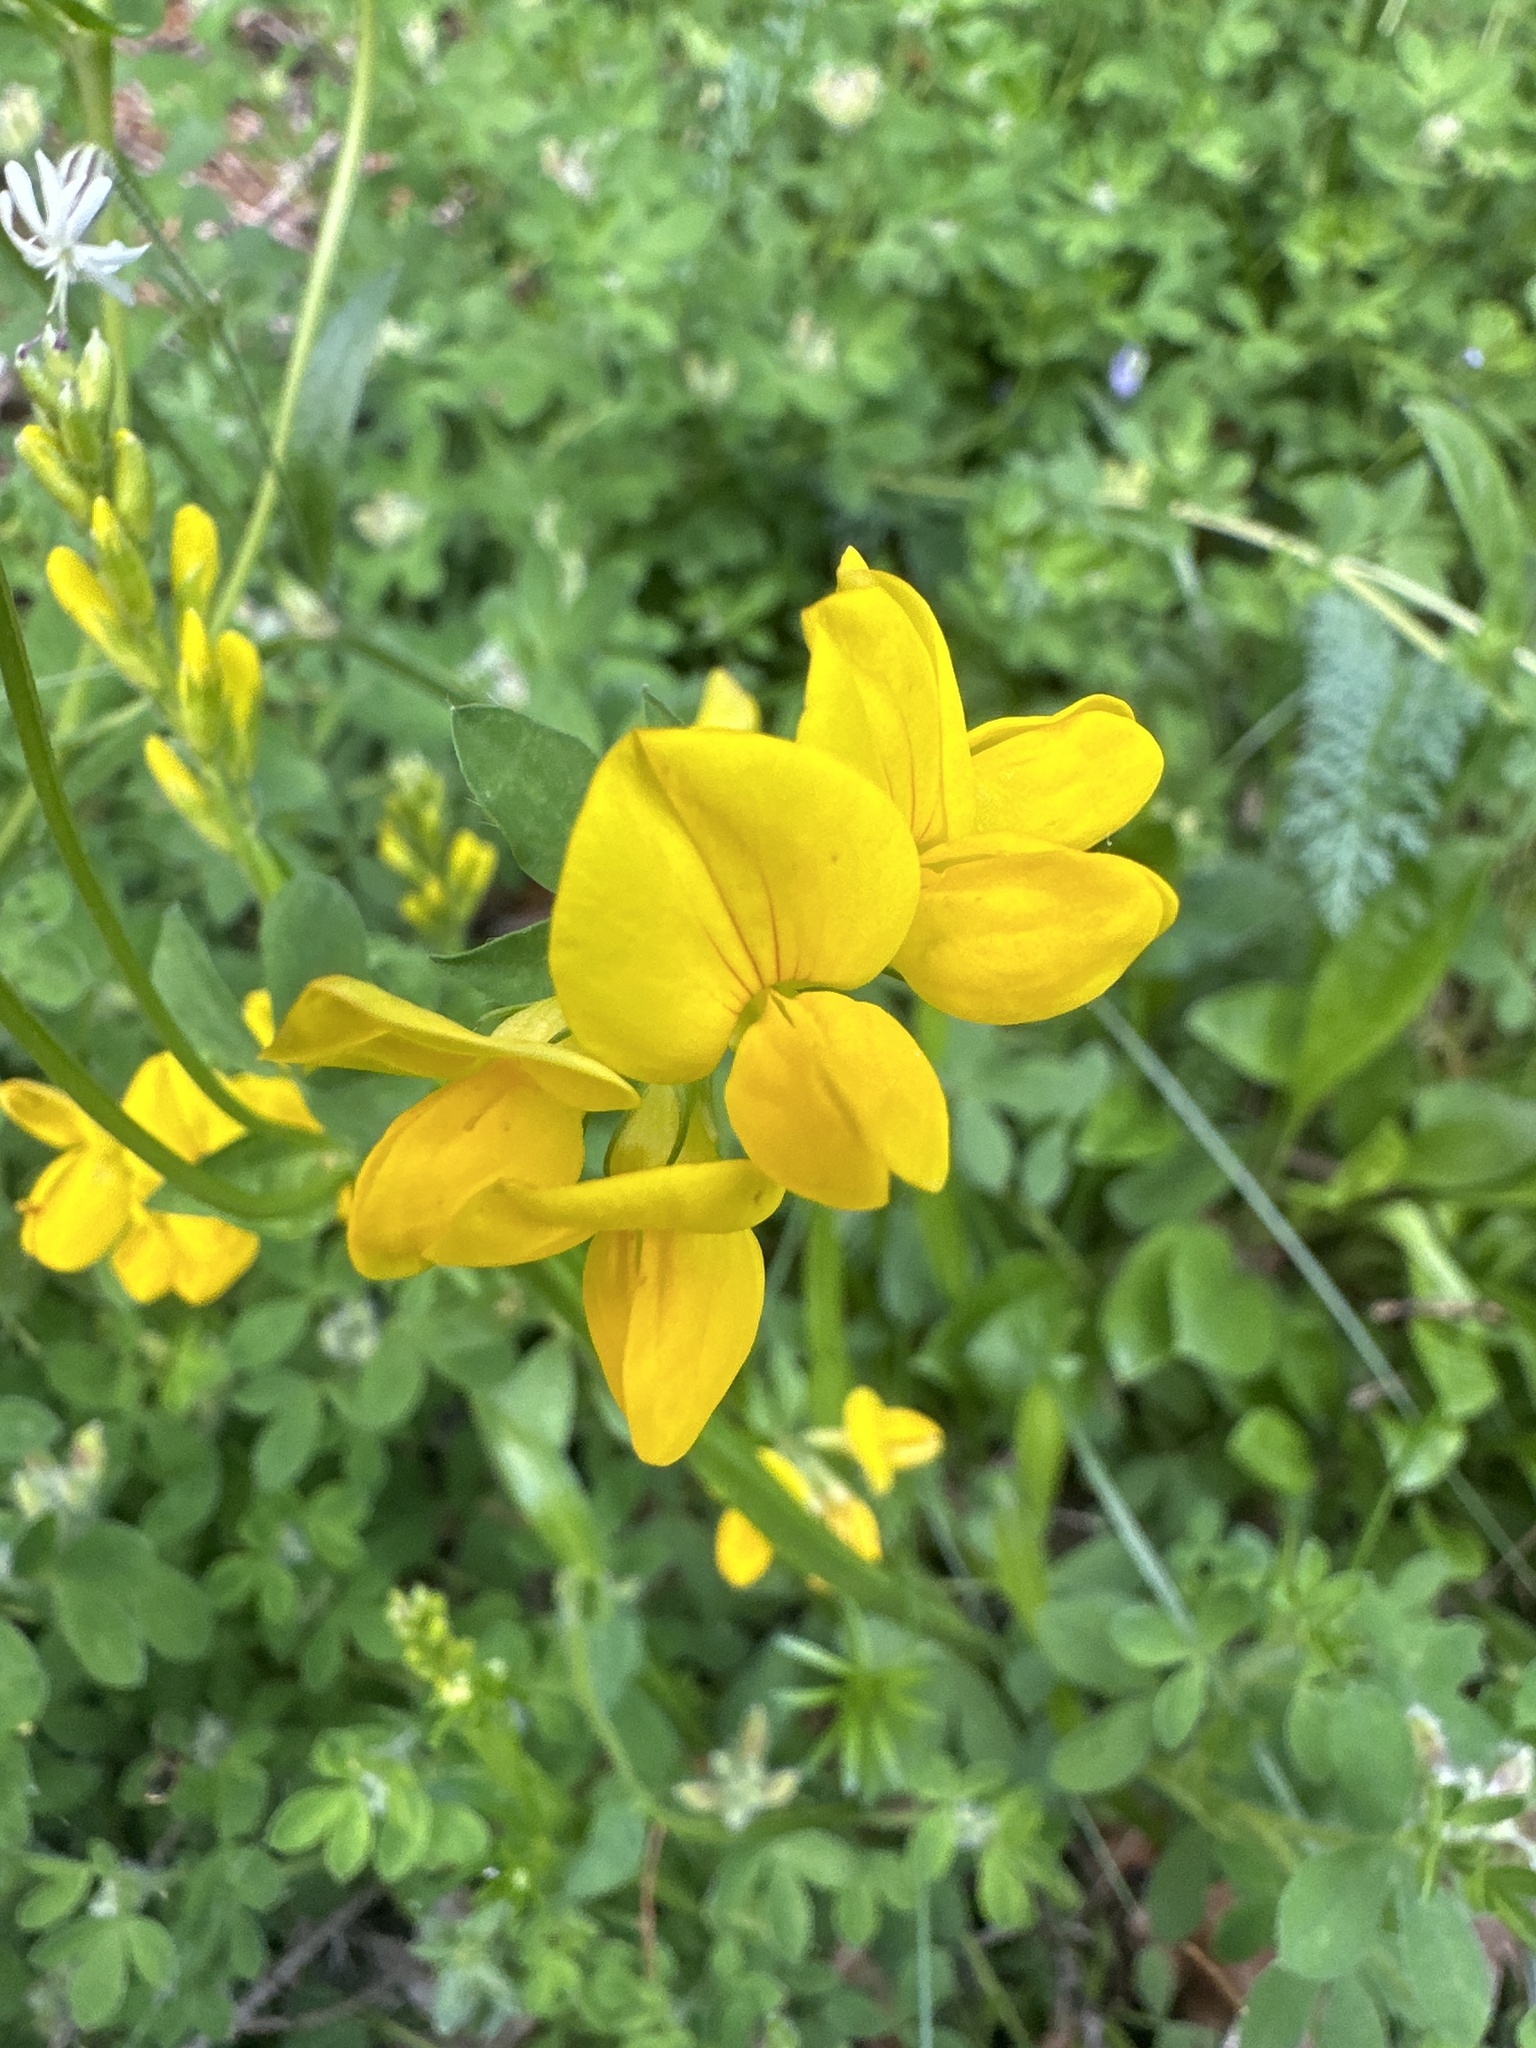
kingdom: Plantae
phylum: Tracheophyta
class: Magnoliopsida
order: Fabales
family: Fabaceae
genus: Lotus
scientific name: Lotus corniculatus
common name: Common bird's-foot-trefoil
